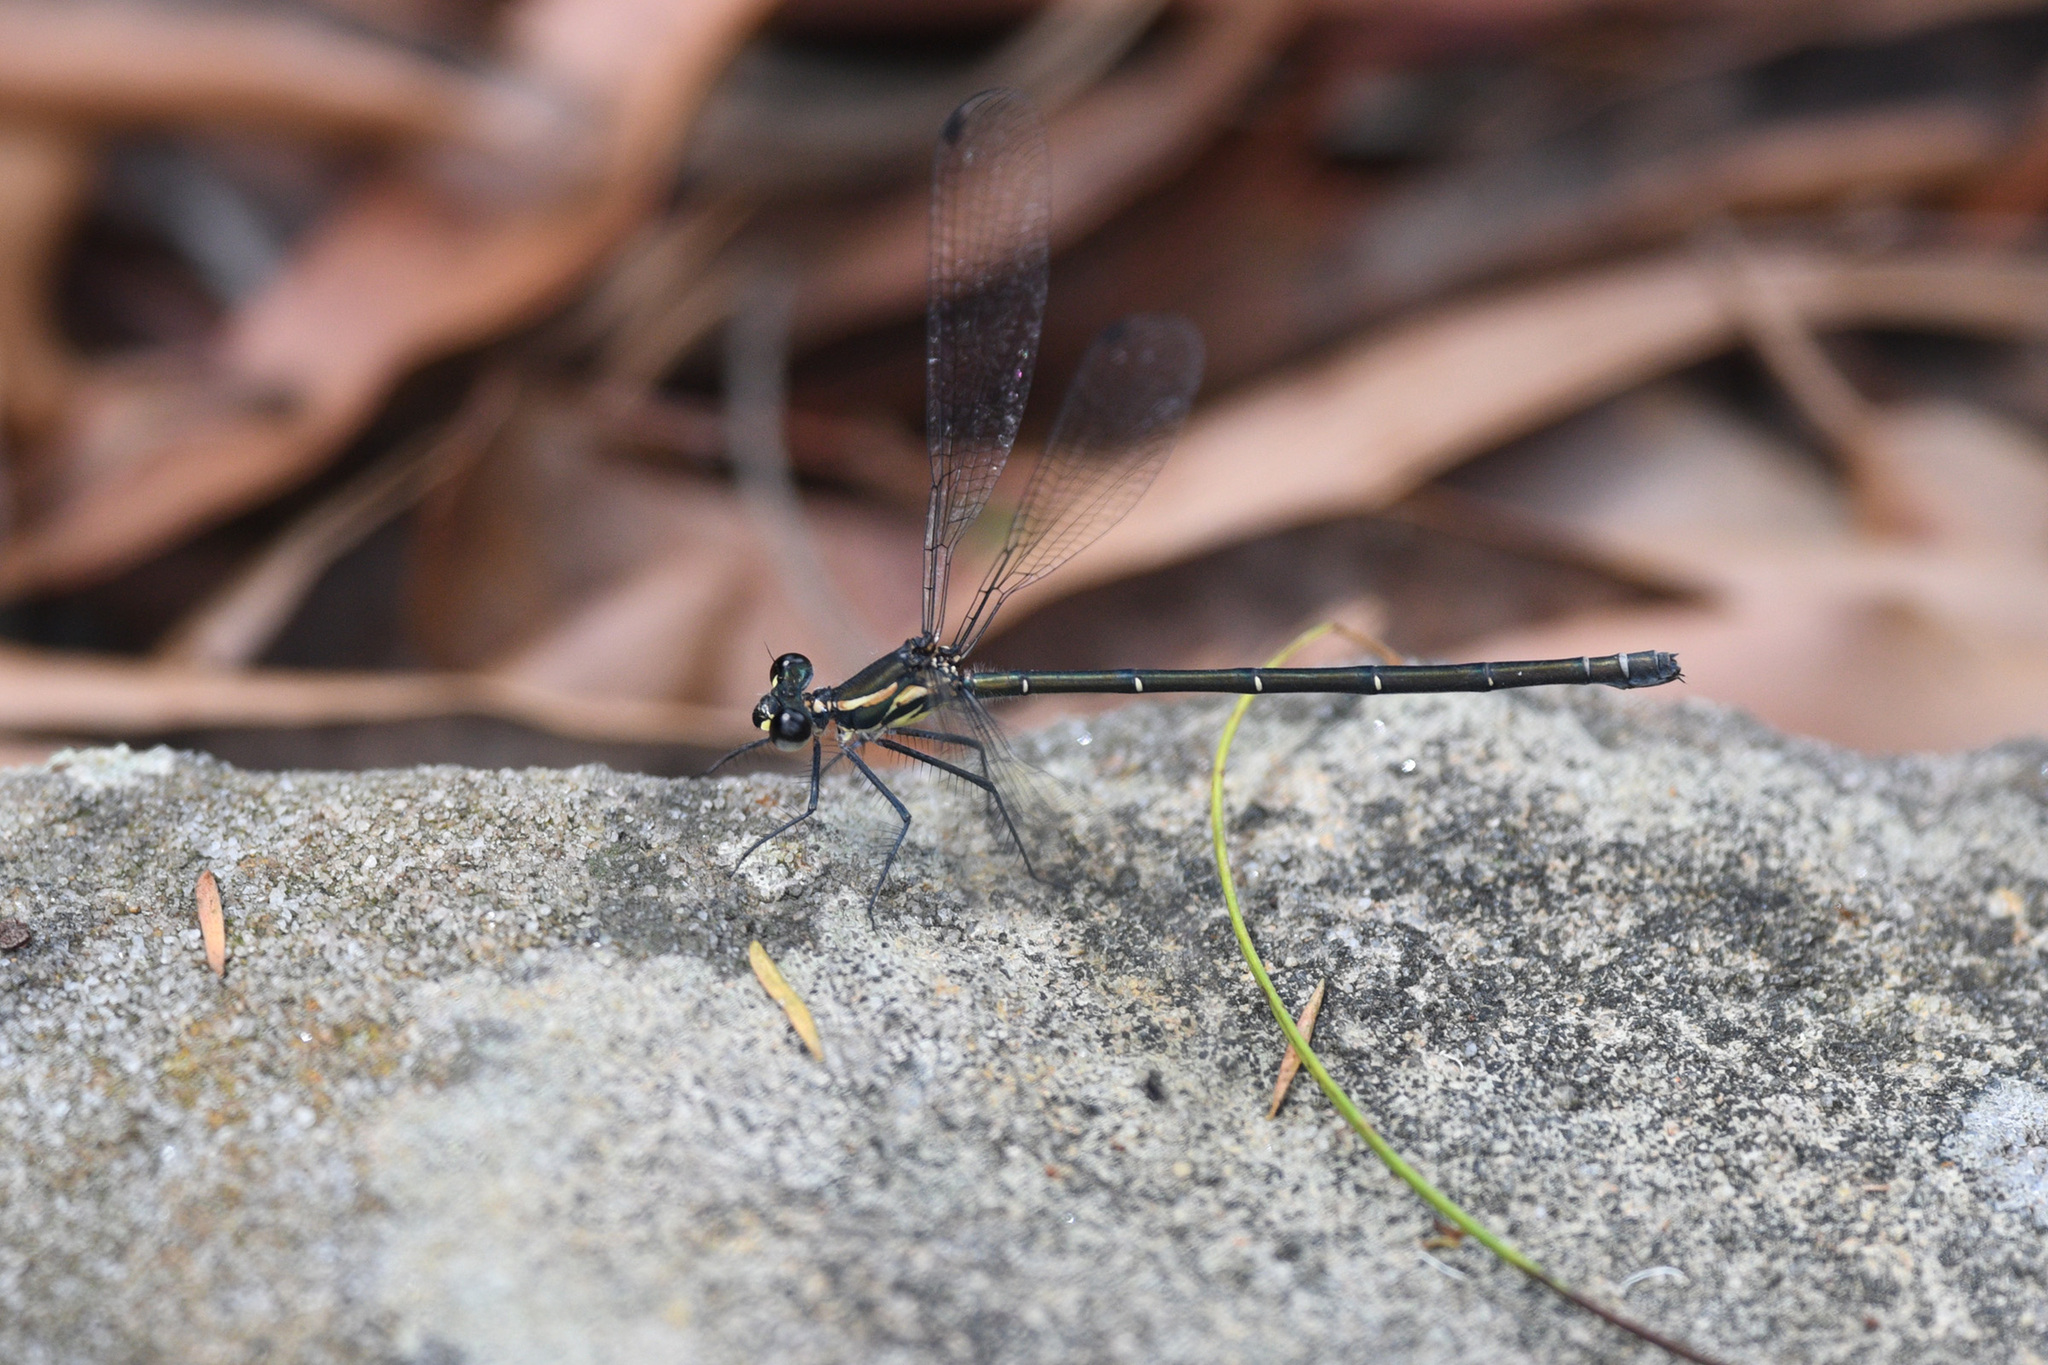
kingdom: Animalia
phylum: Arthropoda
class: Insecta
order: Odonata
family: Argiolestidae
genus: Austroargiolestes
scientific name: Austroargiolestes icteromelas
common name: Common flatwing
